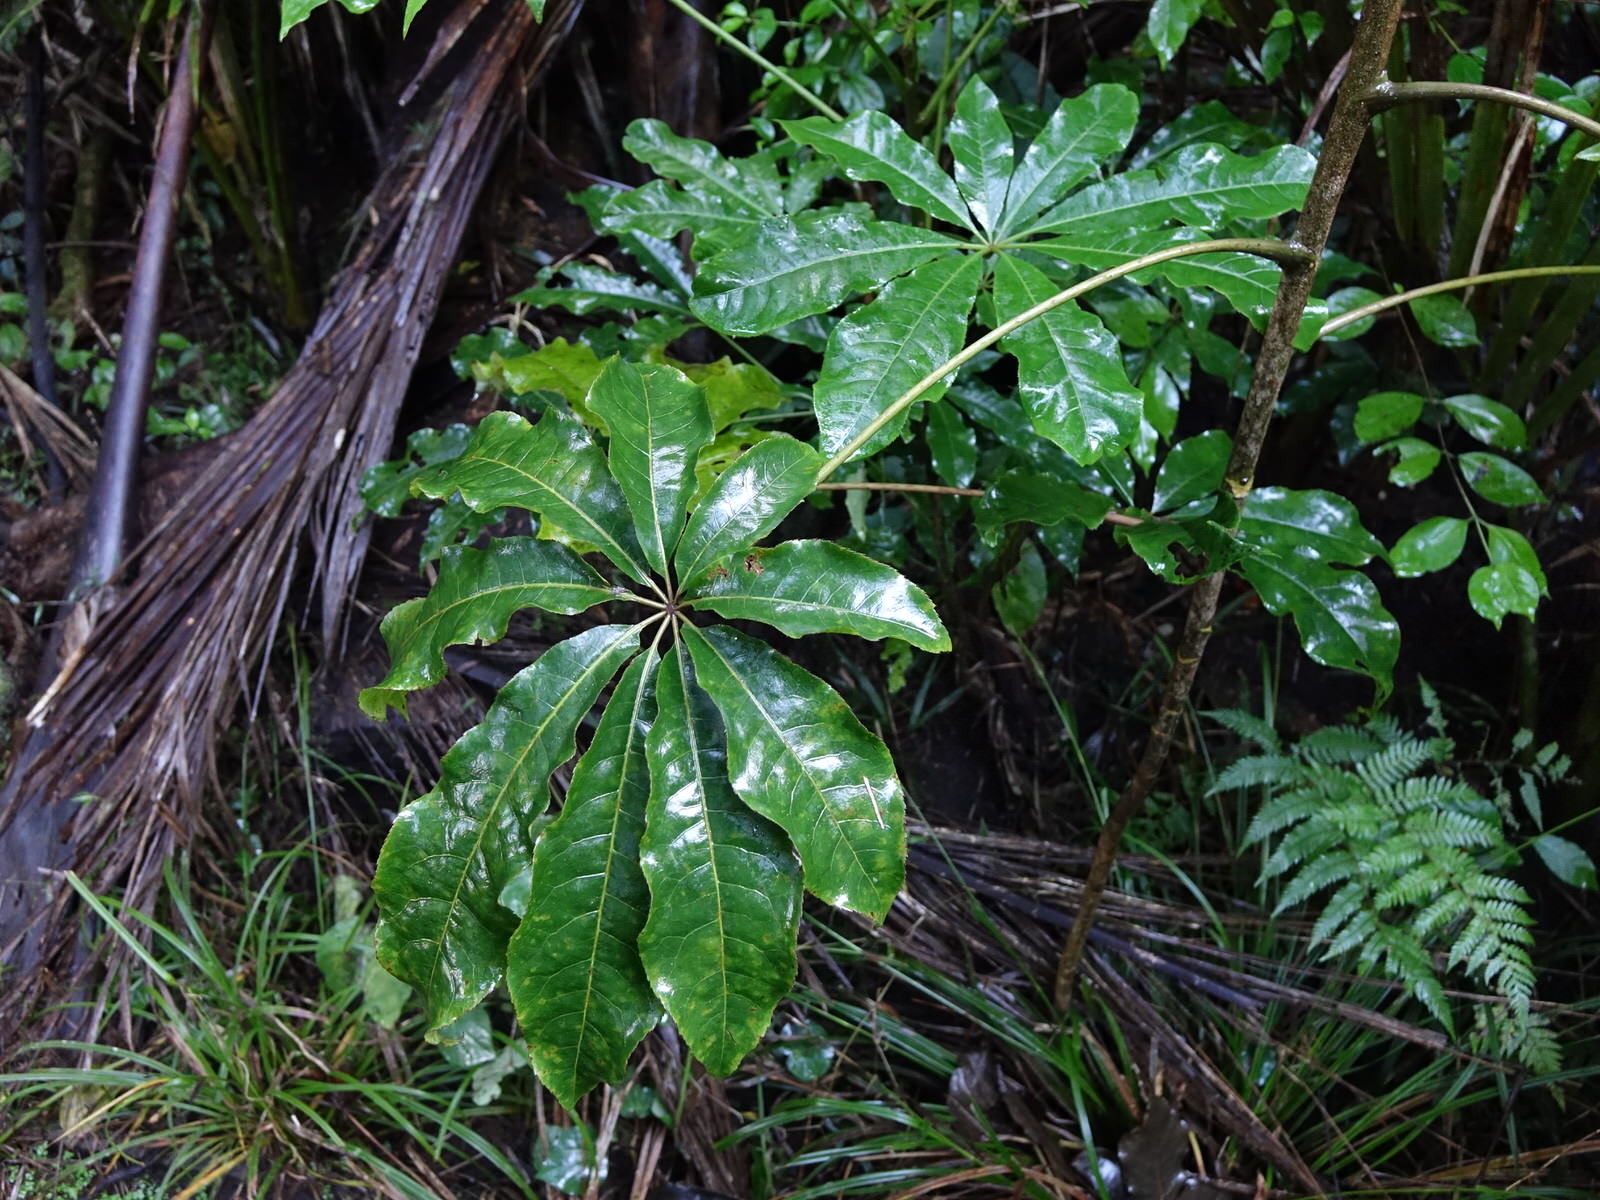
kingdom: Plantae
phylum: Tracheophyta
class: Magnoliopsida
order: Apiales
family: Araliaceae
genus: Schefflera
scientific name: Schefflera digitata
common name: Pate
